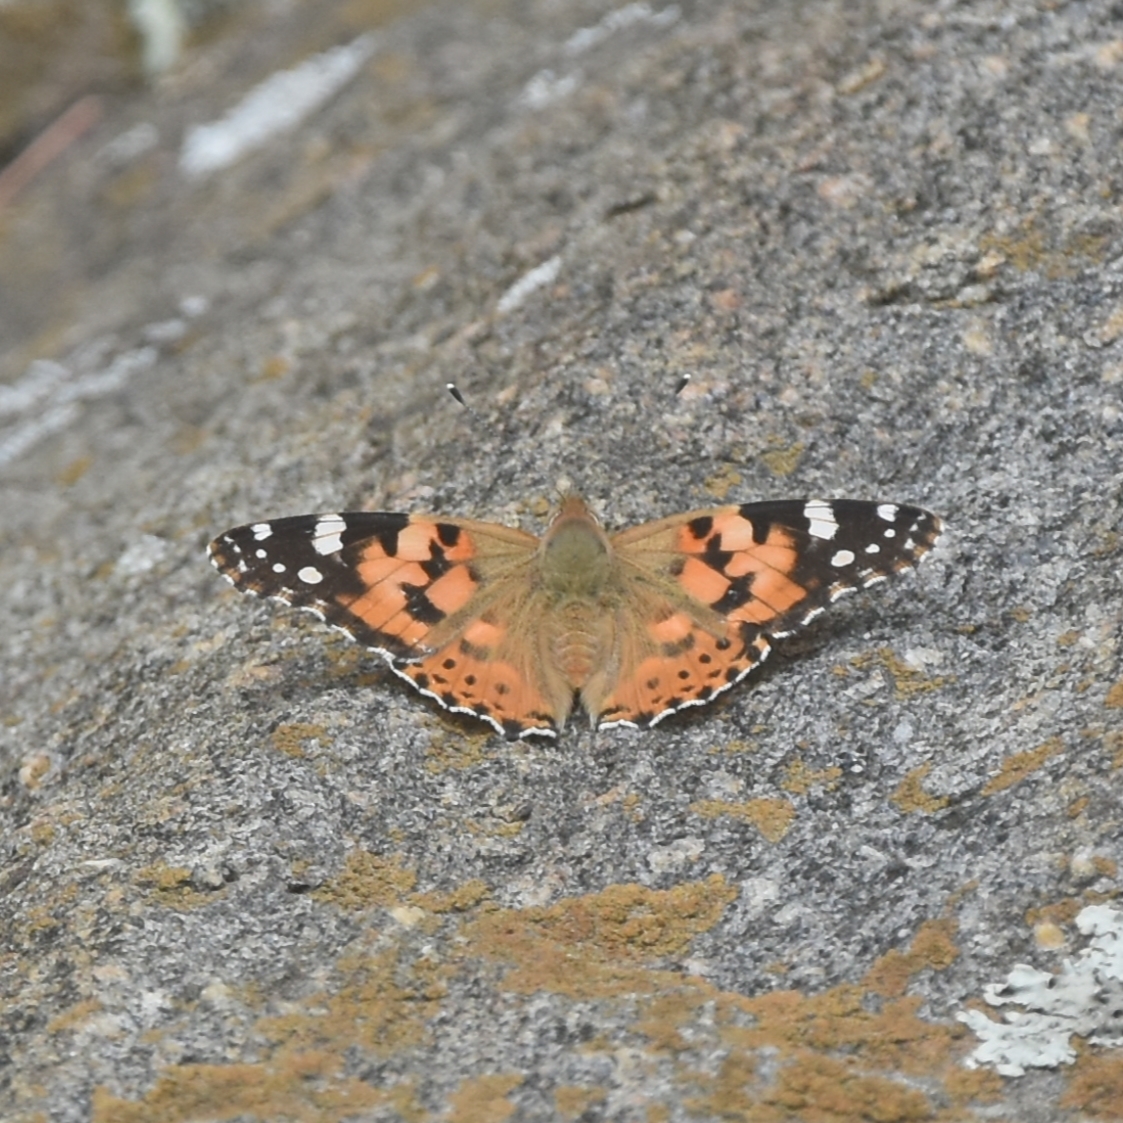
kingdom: Animalia
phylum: Arthropoda
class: Insecta
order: Lepidoptera
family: Nymphalidae
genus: Vanessa
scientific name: Vanessa cardui
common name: Painted lady
